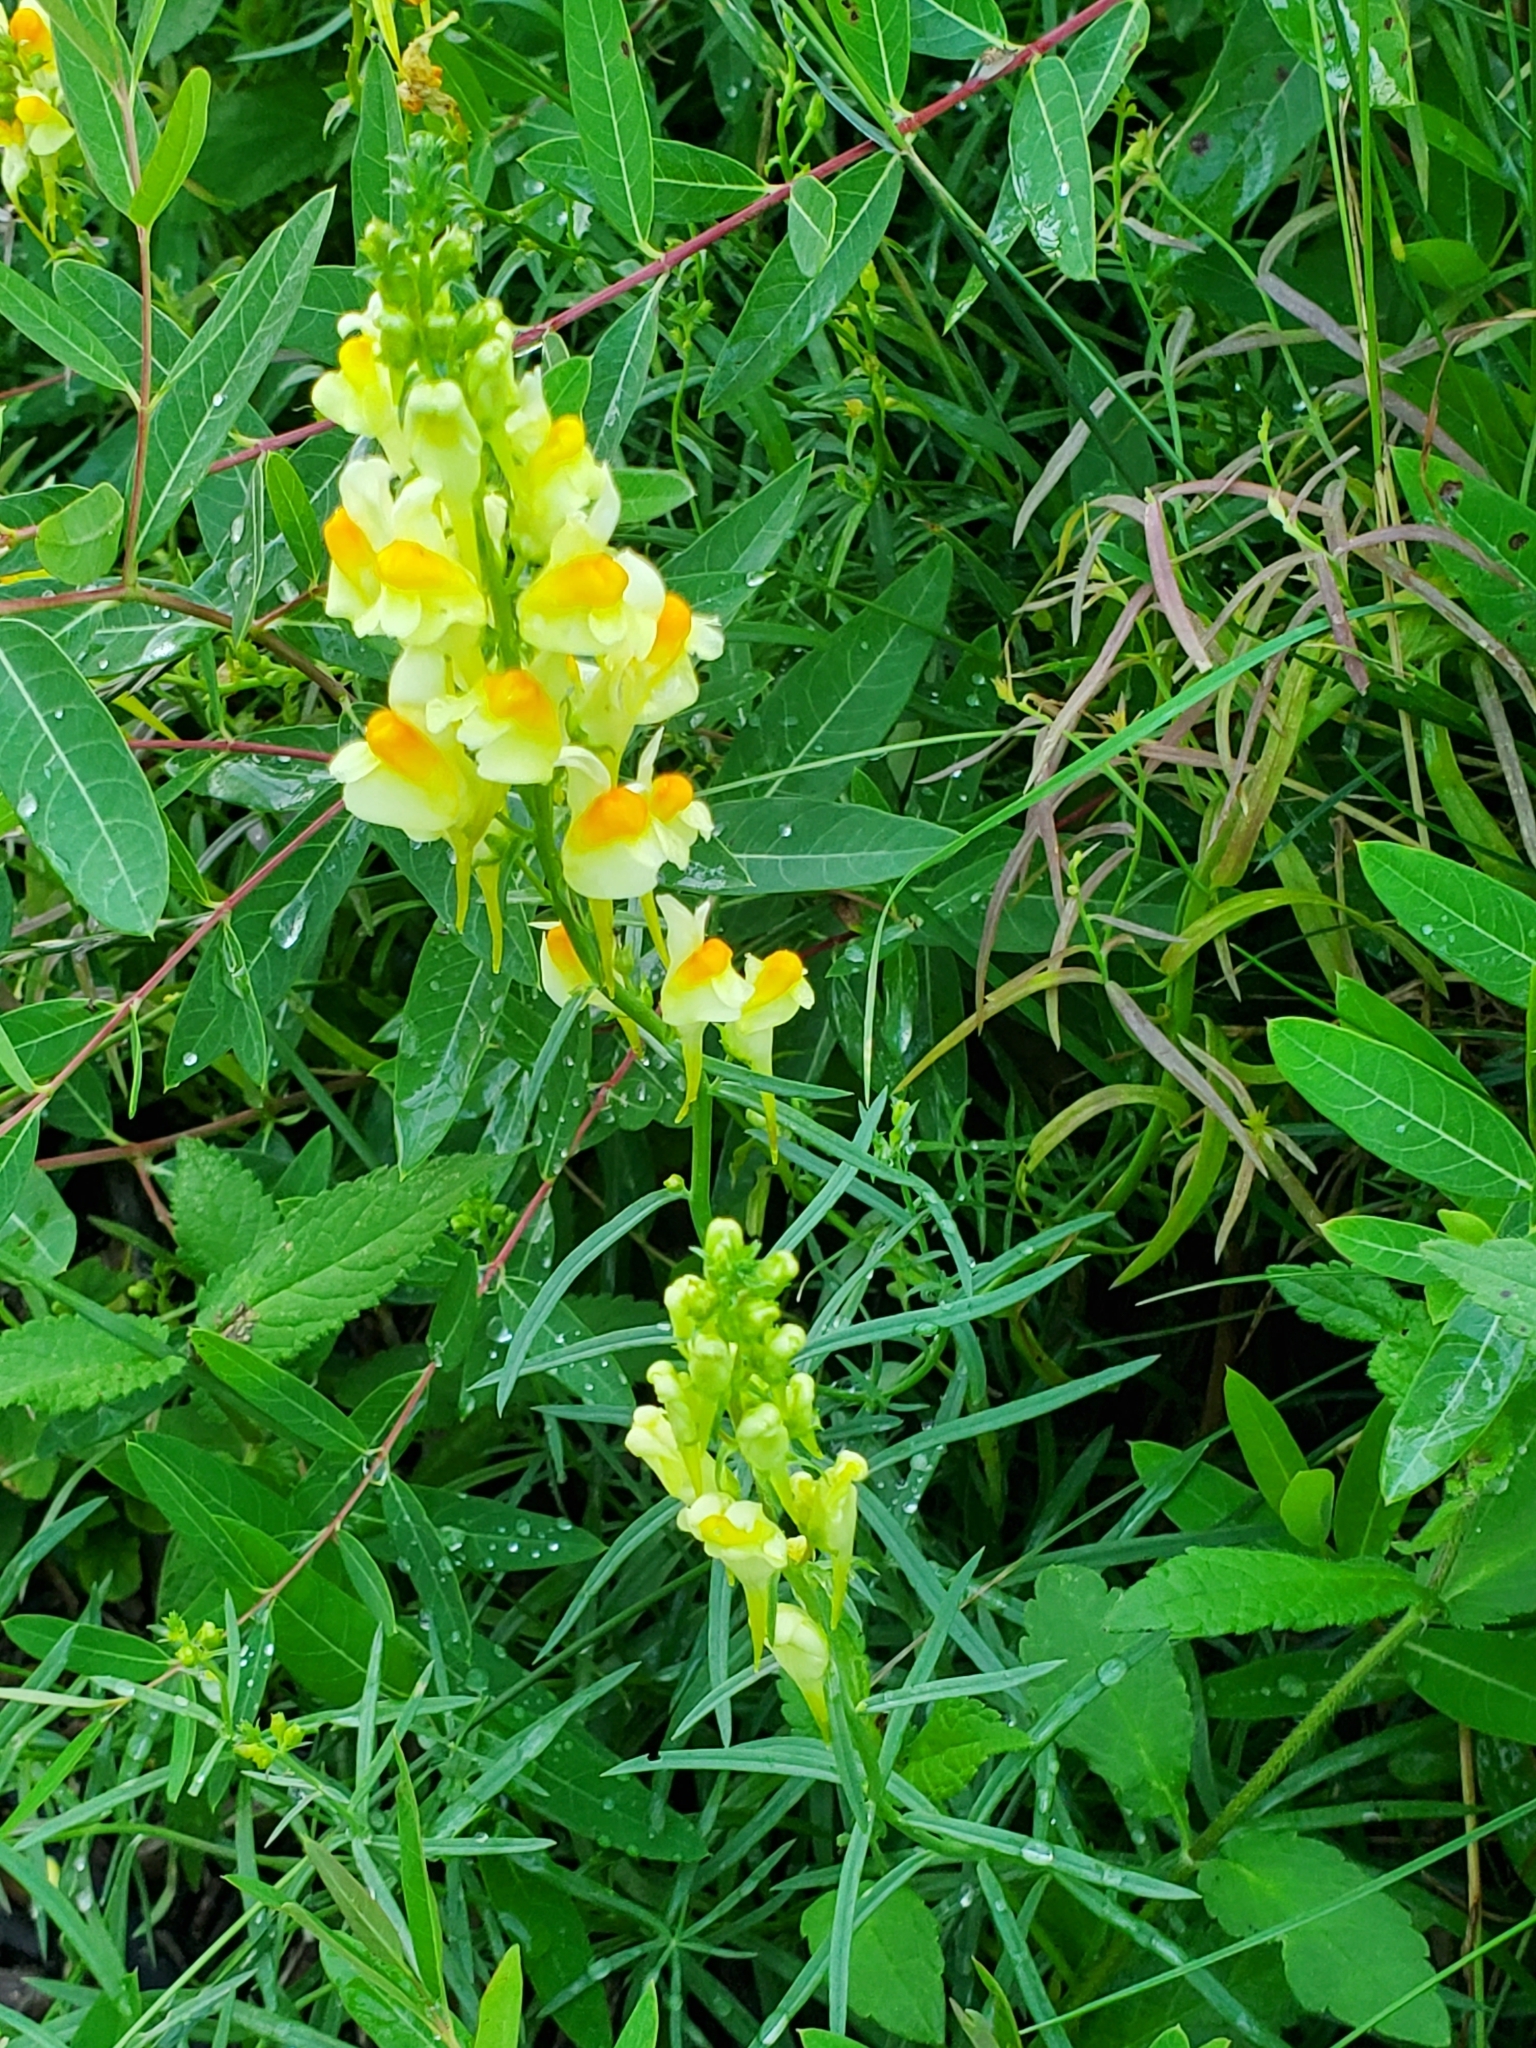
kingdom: Plantae
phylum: Tracheophyta
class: Magnoliopsida
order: Lamiales
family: Plantaginaceae
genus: Linaria
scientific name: Linaria vulgaris
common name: Butter and eggs
